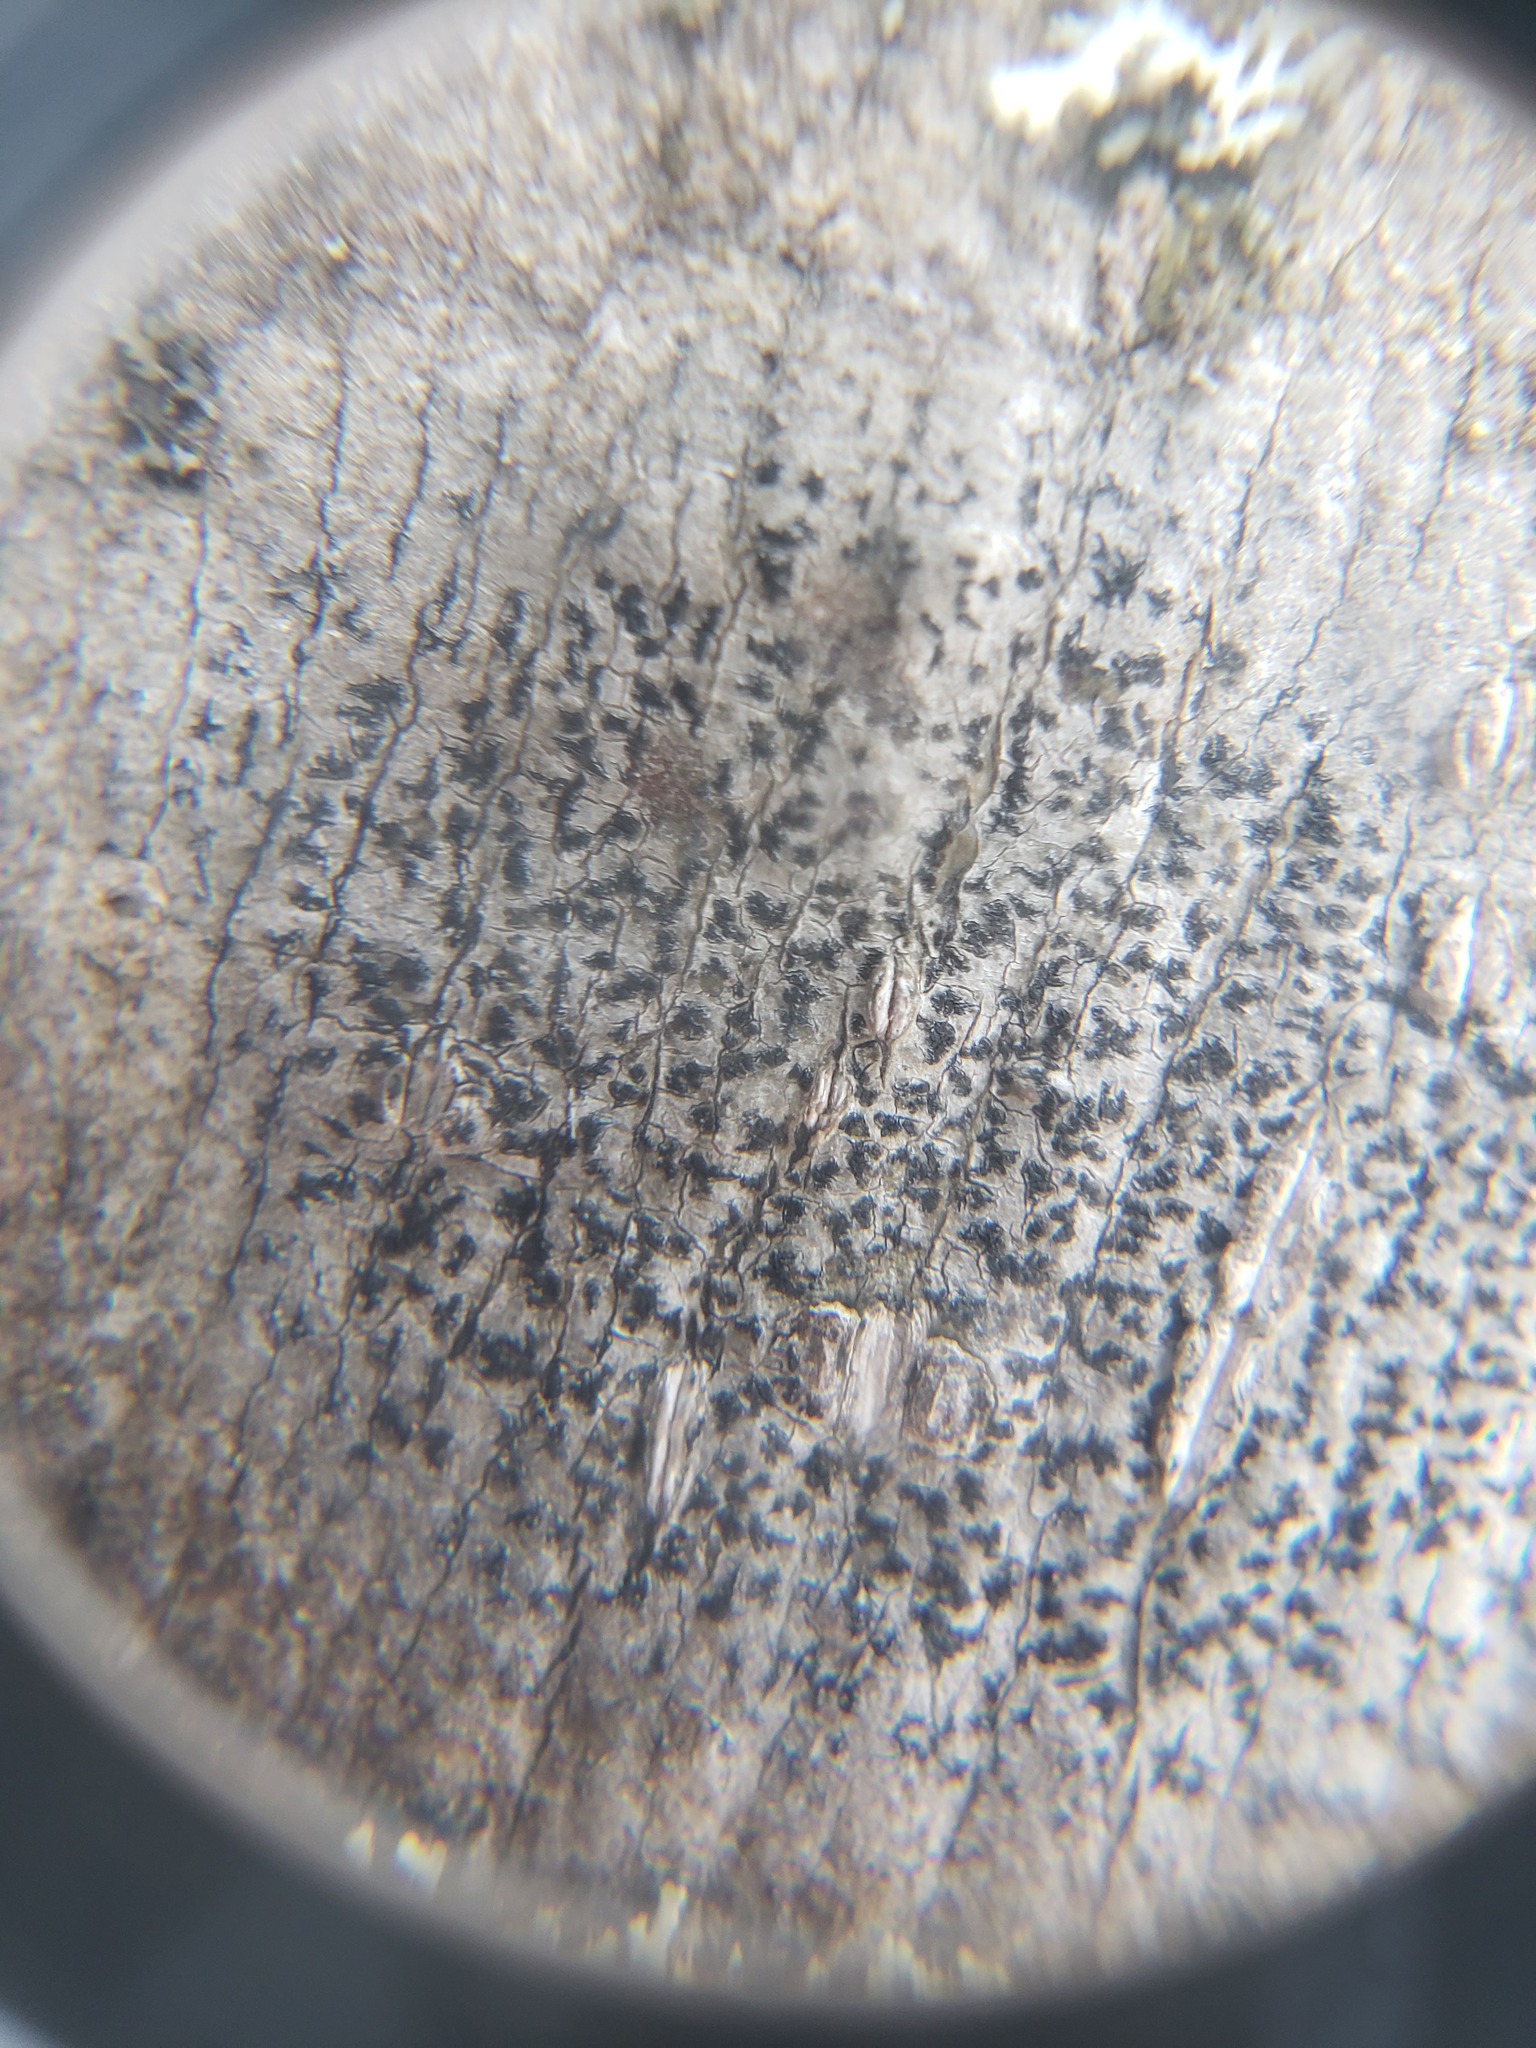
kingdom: Fungi
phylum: Ascomycota
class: Arthoniomycetes
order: Arthoniales
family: Arthoniaceae
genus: Arthonia
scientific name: Arthonia radiata
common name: Asterisk lichen
